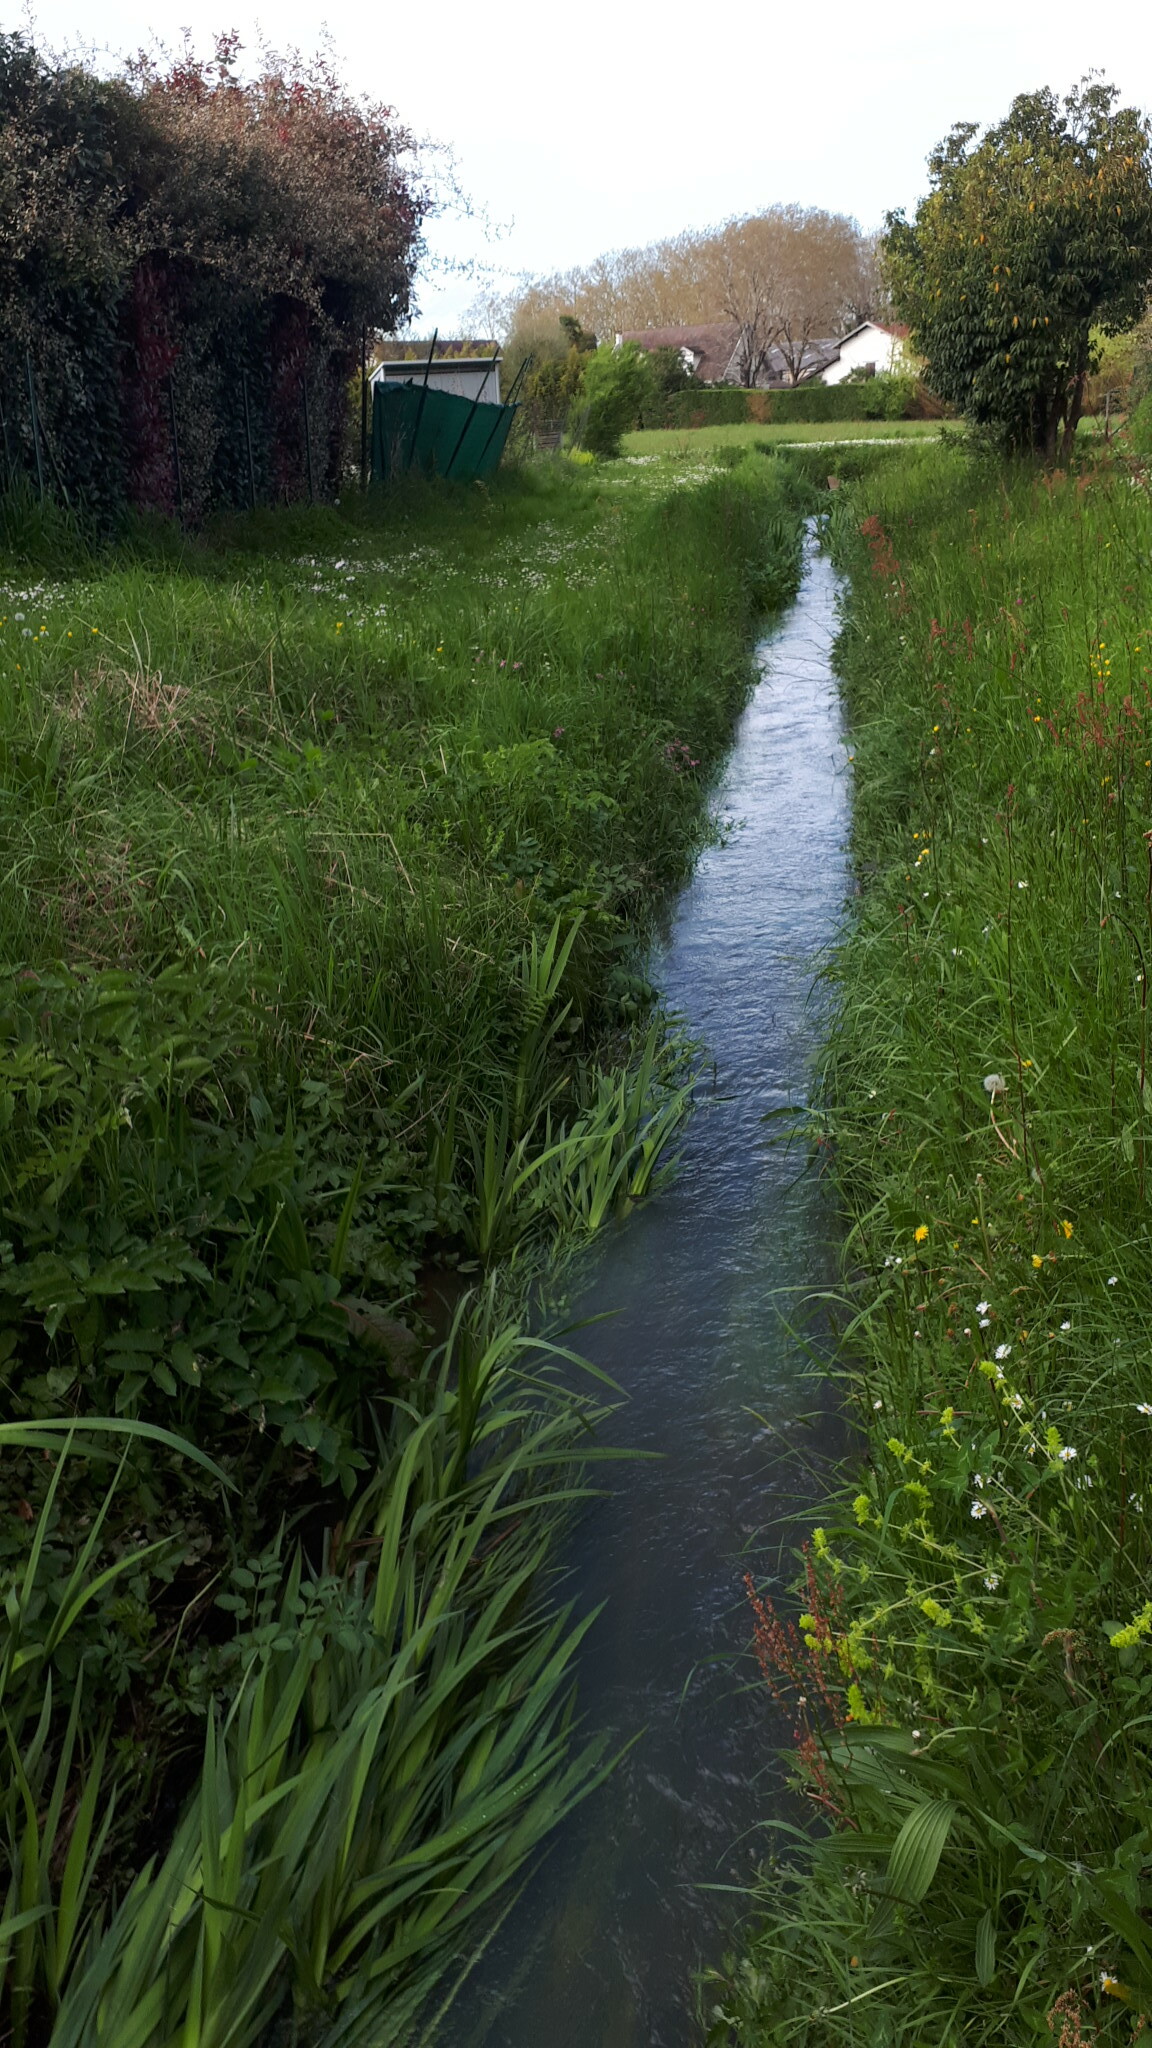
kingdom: Plantae
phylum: Tracheophyta
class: Liliopsida
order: Asparagales
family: Iridaceae
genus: Iris
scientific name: Iris pseudacorus
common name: Yellow flag
